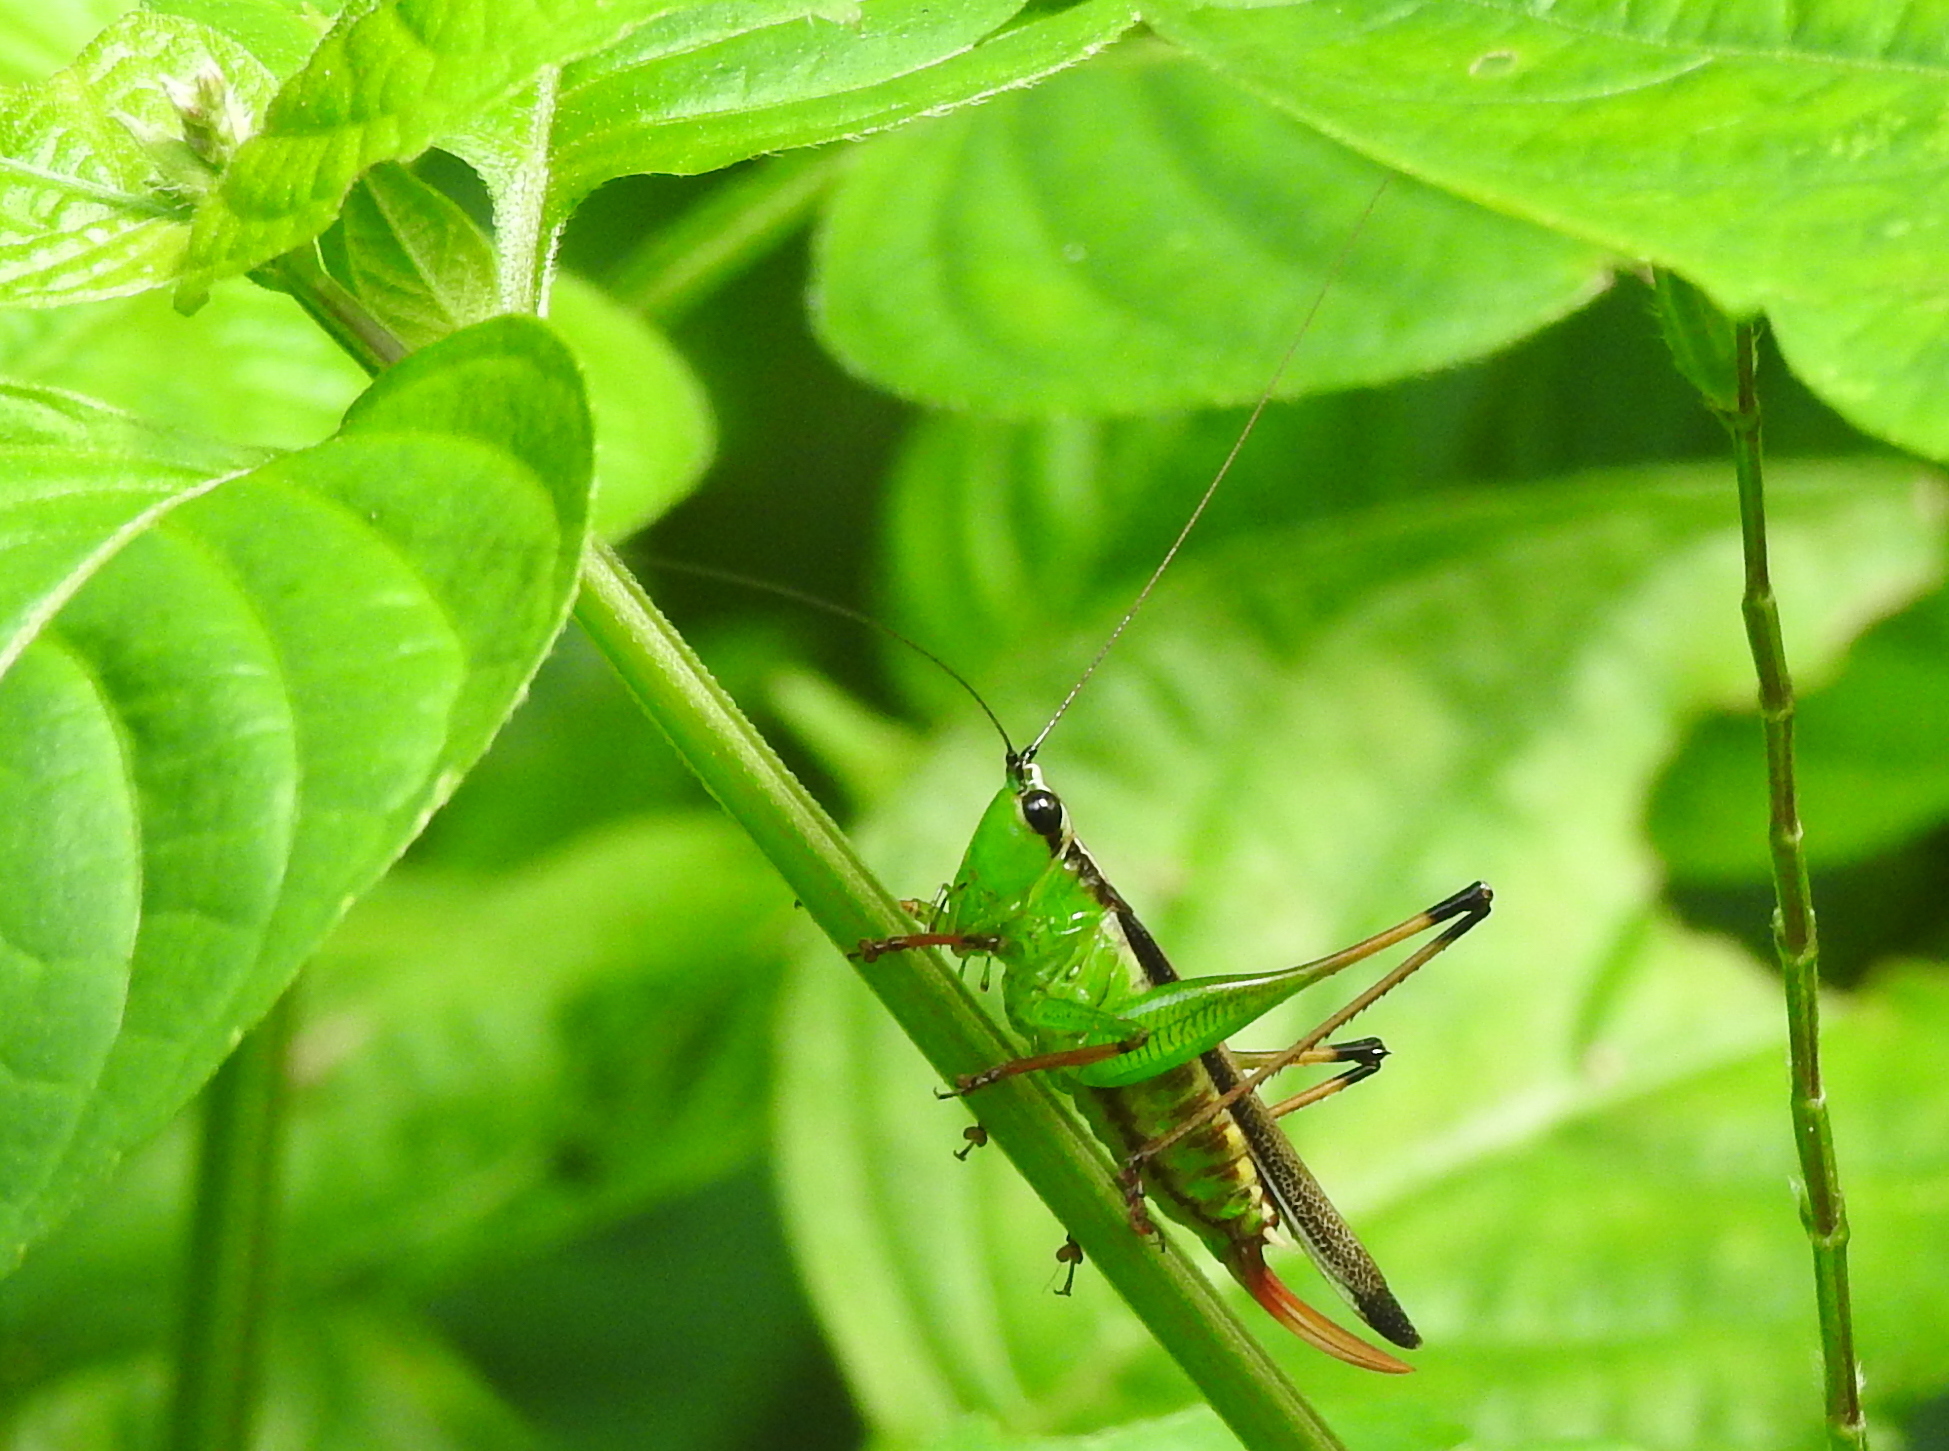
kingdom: Animalia
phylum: Arthropoda
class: Insecta
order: Orthoptera
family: Tettigoniidae
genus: Conocephalus
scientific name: Conocephalus melaenus
